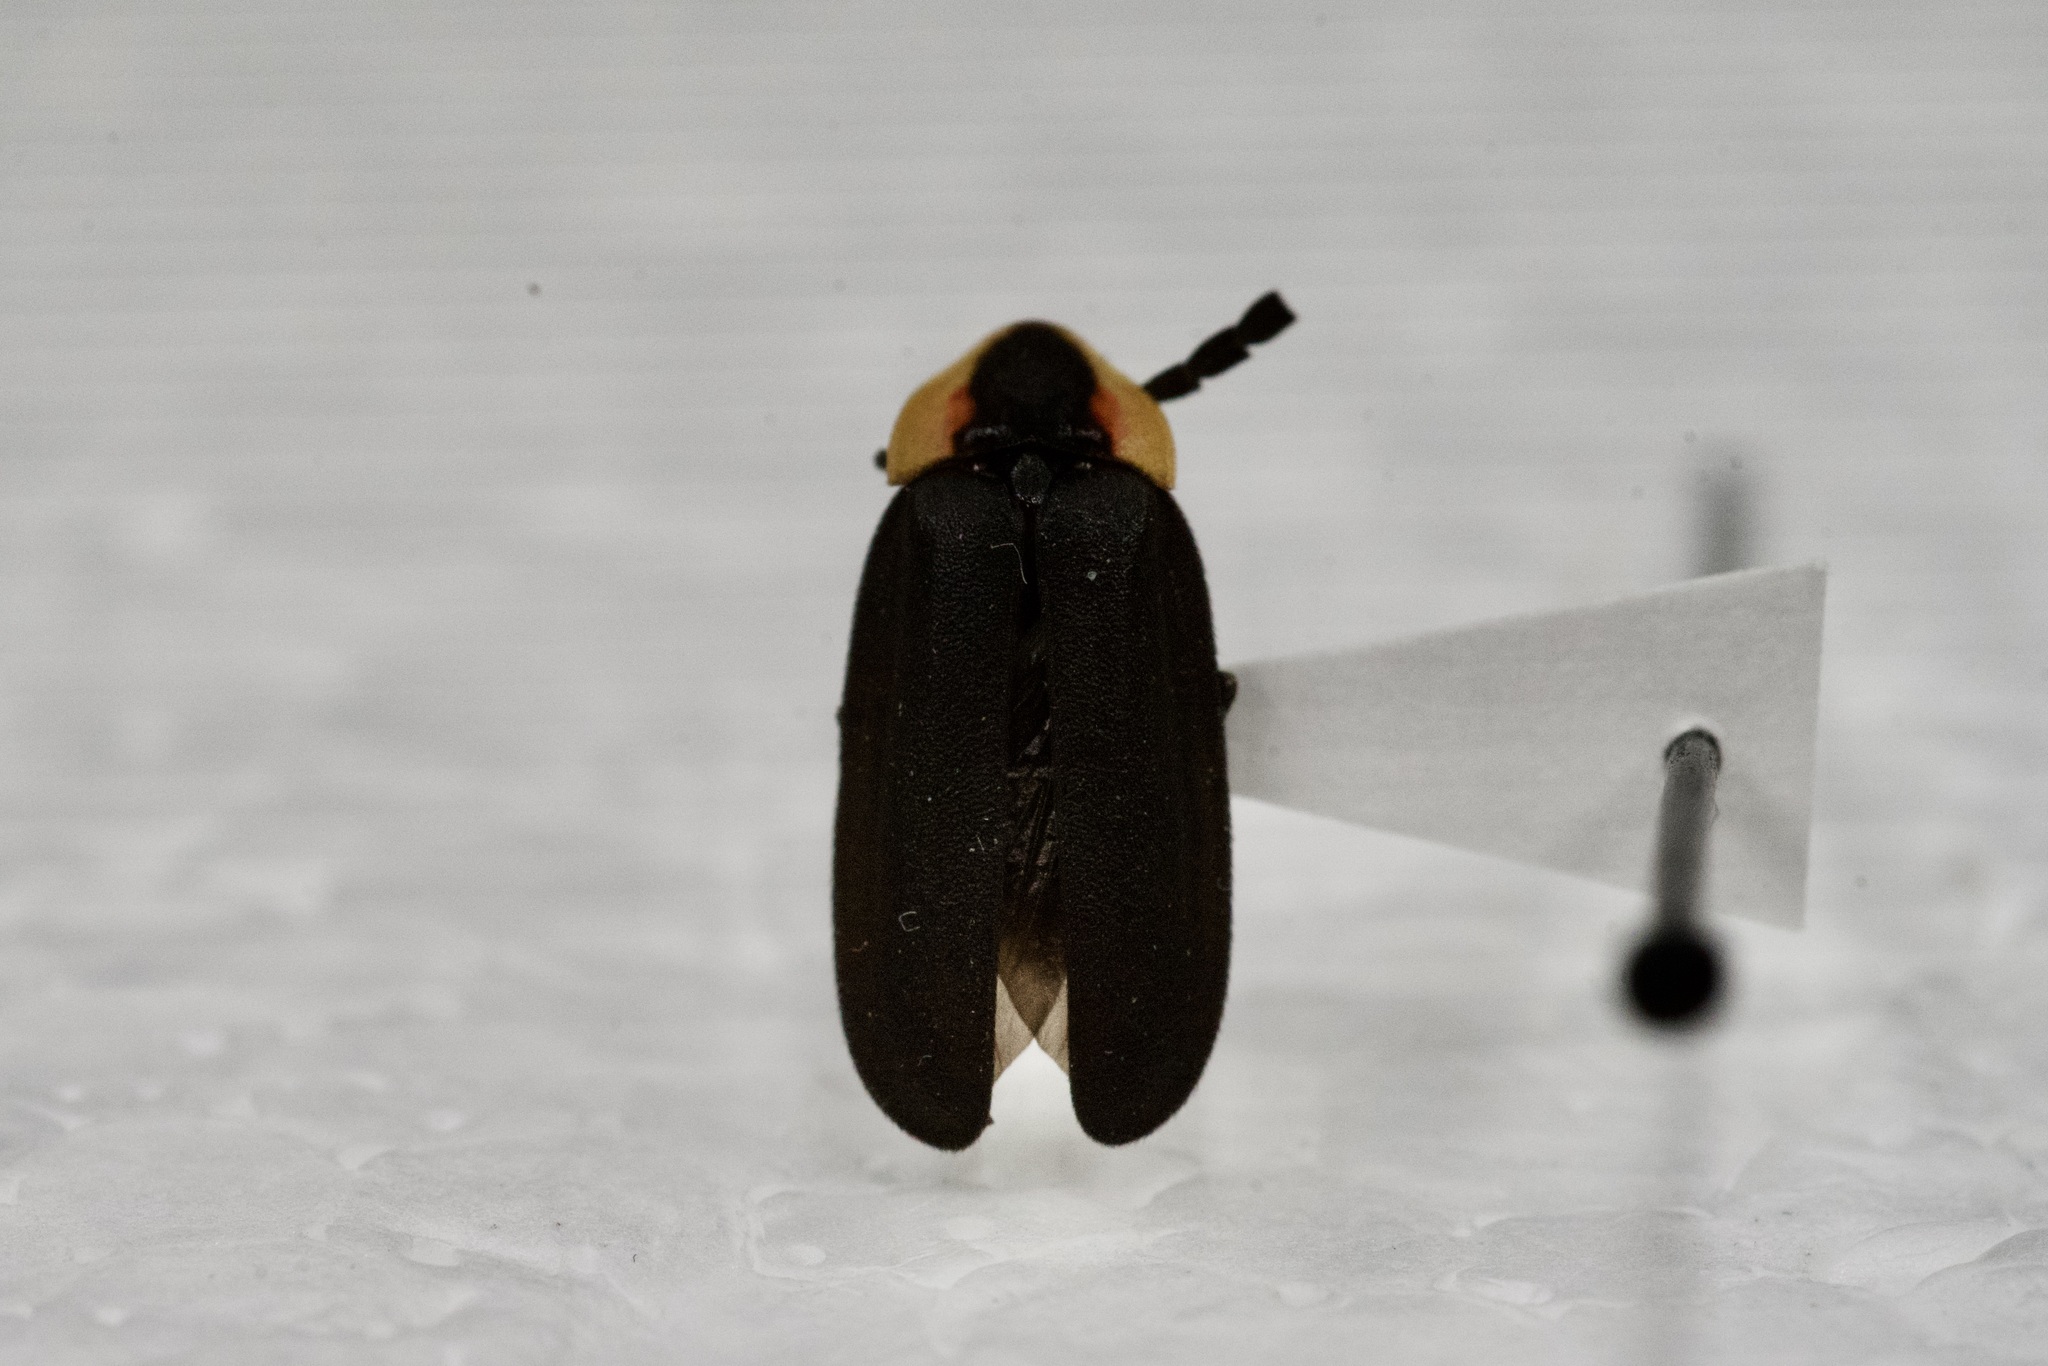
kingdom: Animalia
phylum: Arthropoda
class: Insecta
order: Coleoptera
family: Lampyridae
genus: Lucidota
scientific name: Lucidota atra
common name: Black firefly
